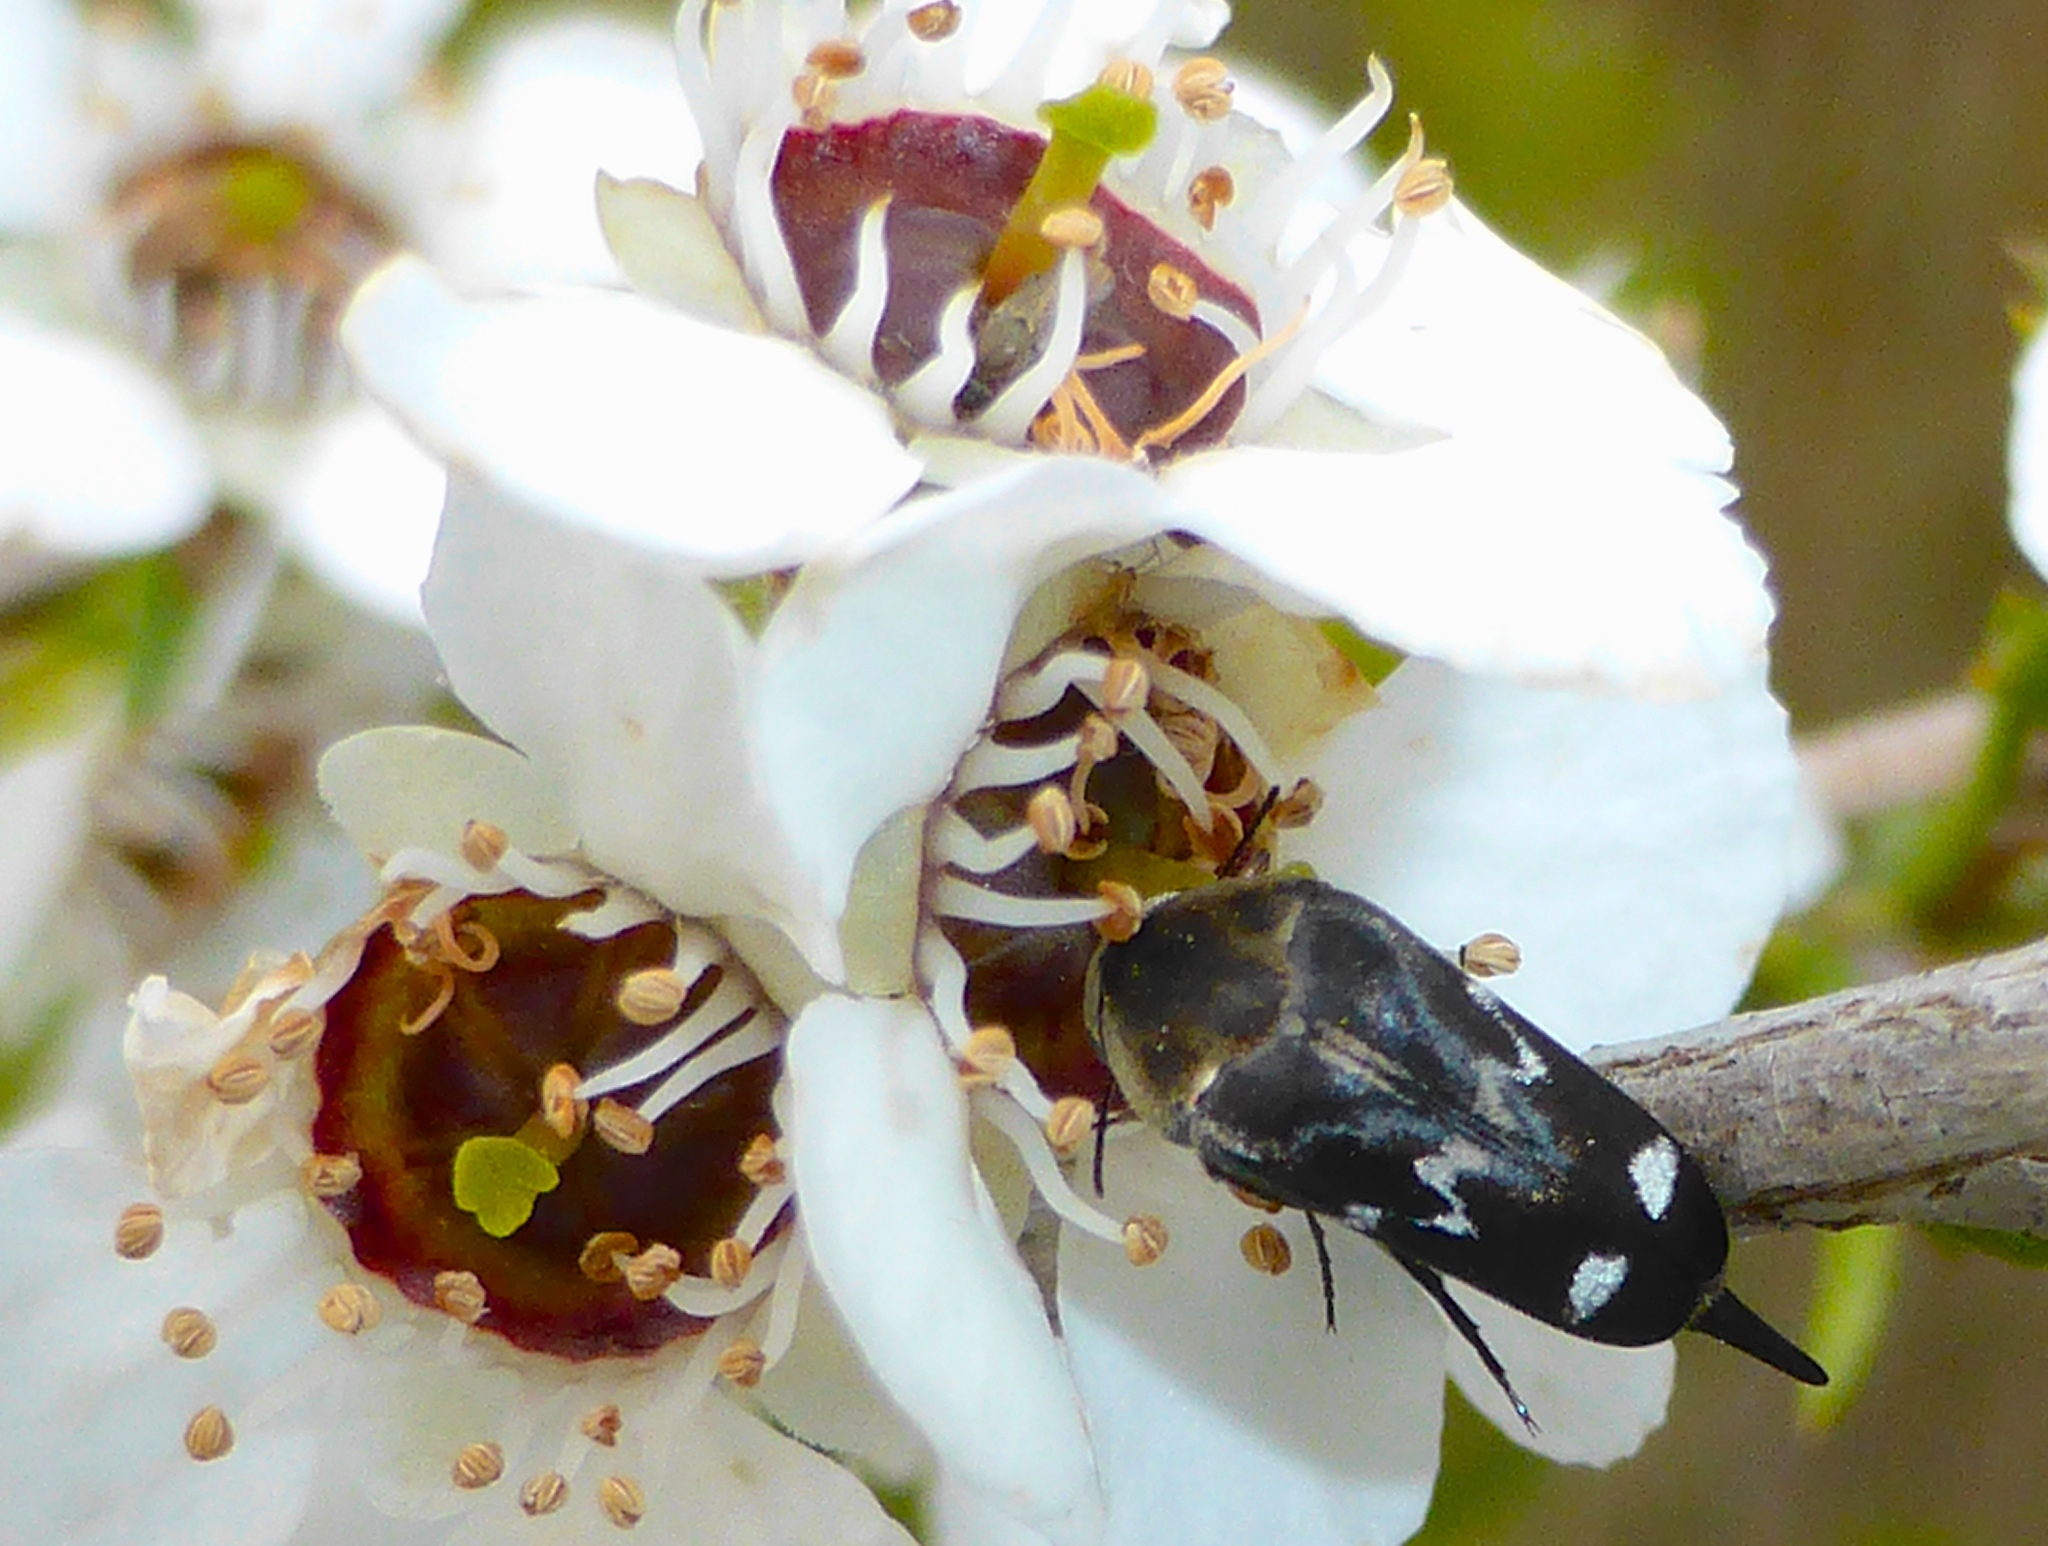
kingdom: Animalia
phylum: Arthropoda
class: Insecta
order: Coleoptera
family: Mordellidae
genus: Mordella
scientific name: Mordella
